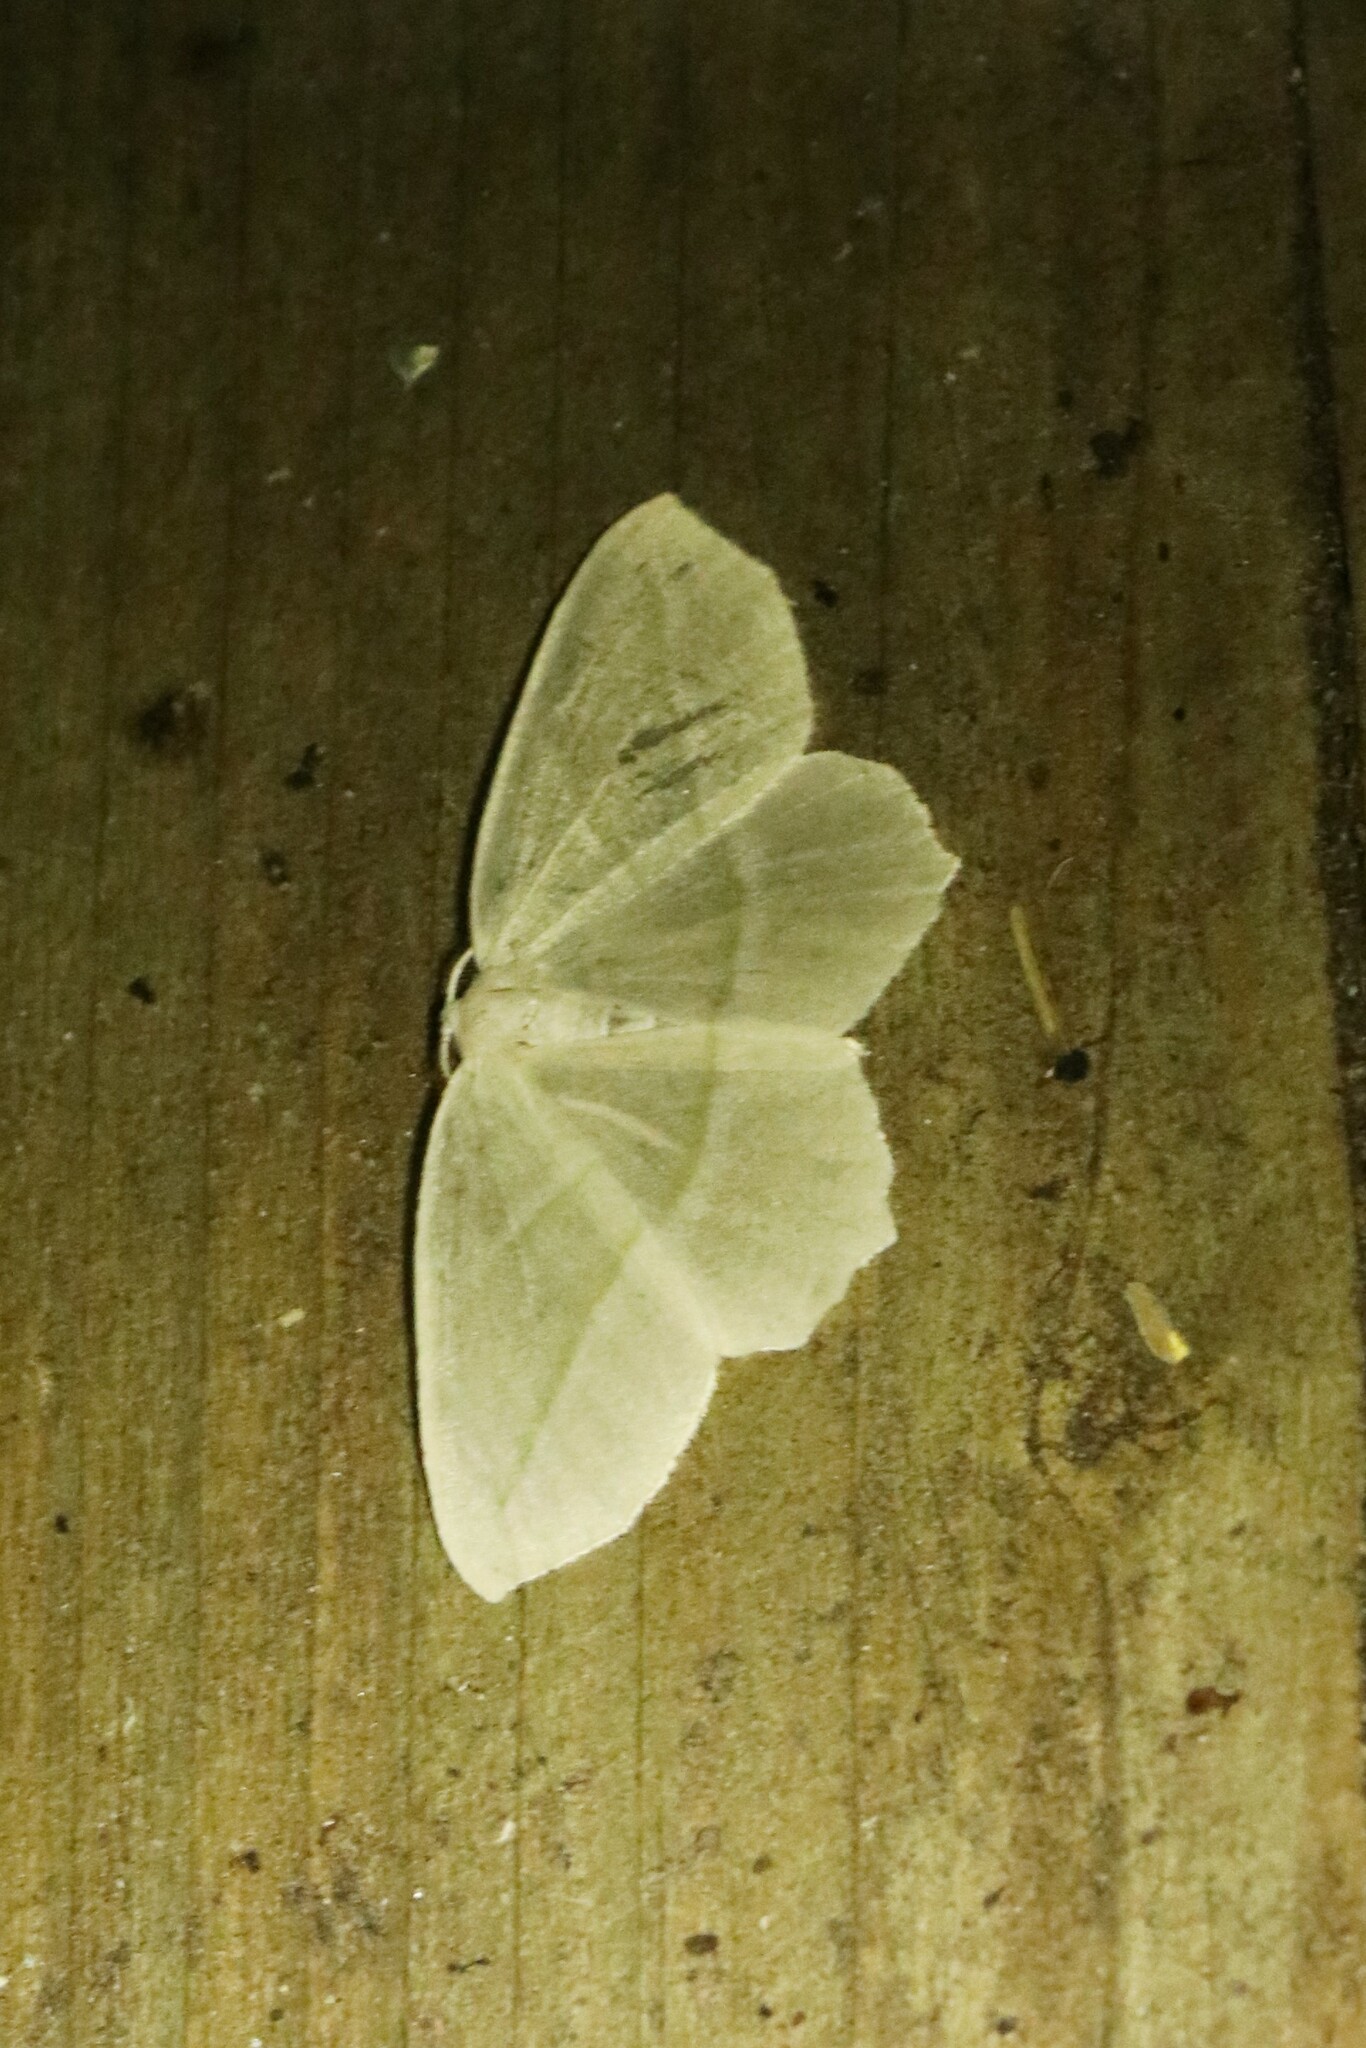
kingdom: Animalia
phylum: Arthropoda
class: Insecta
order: Lepidoptera
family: Geometridae
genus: Campaea
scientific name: Campaea perlata
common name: Fringed looper
